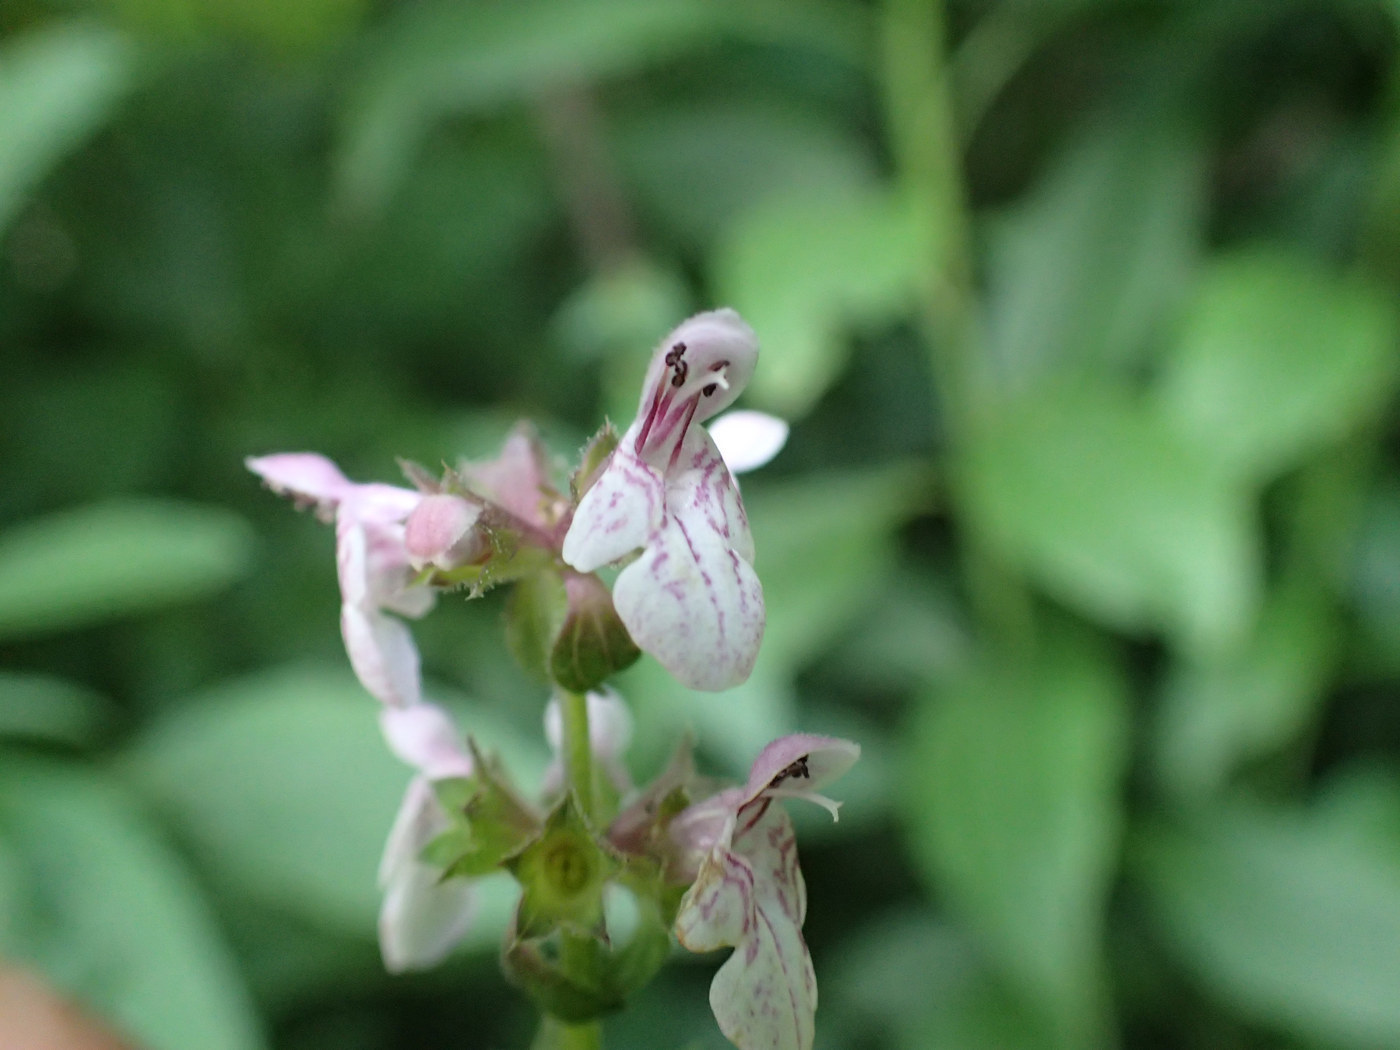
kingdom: Plantae
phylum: Tracheophyta
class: Magnoliopsida
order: Lamiales
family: Lamiaceae
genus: Stachys
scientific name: Stachys latidens
